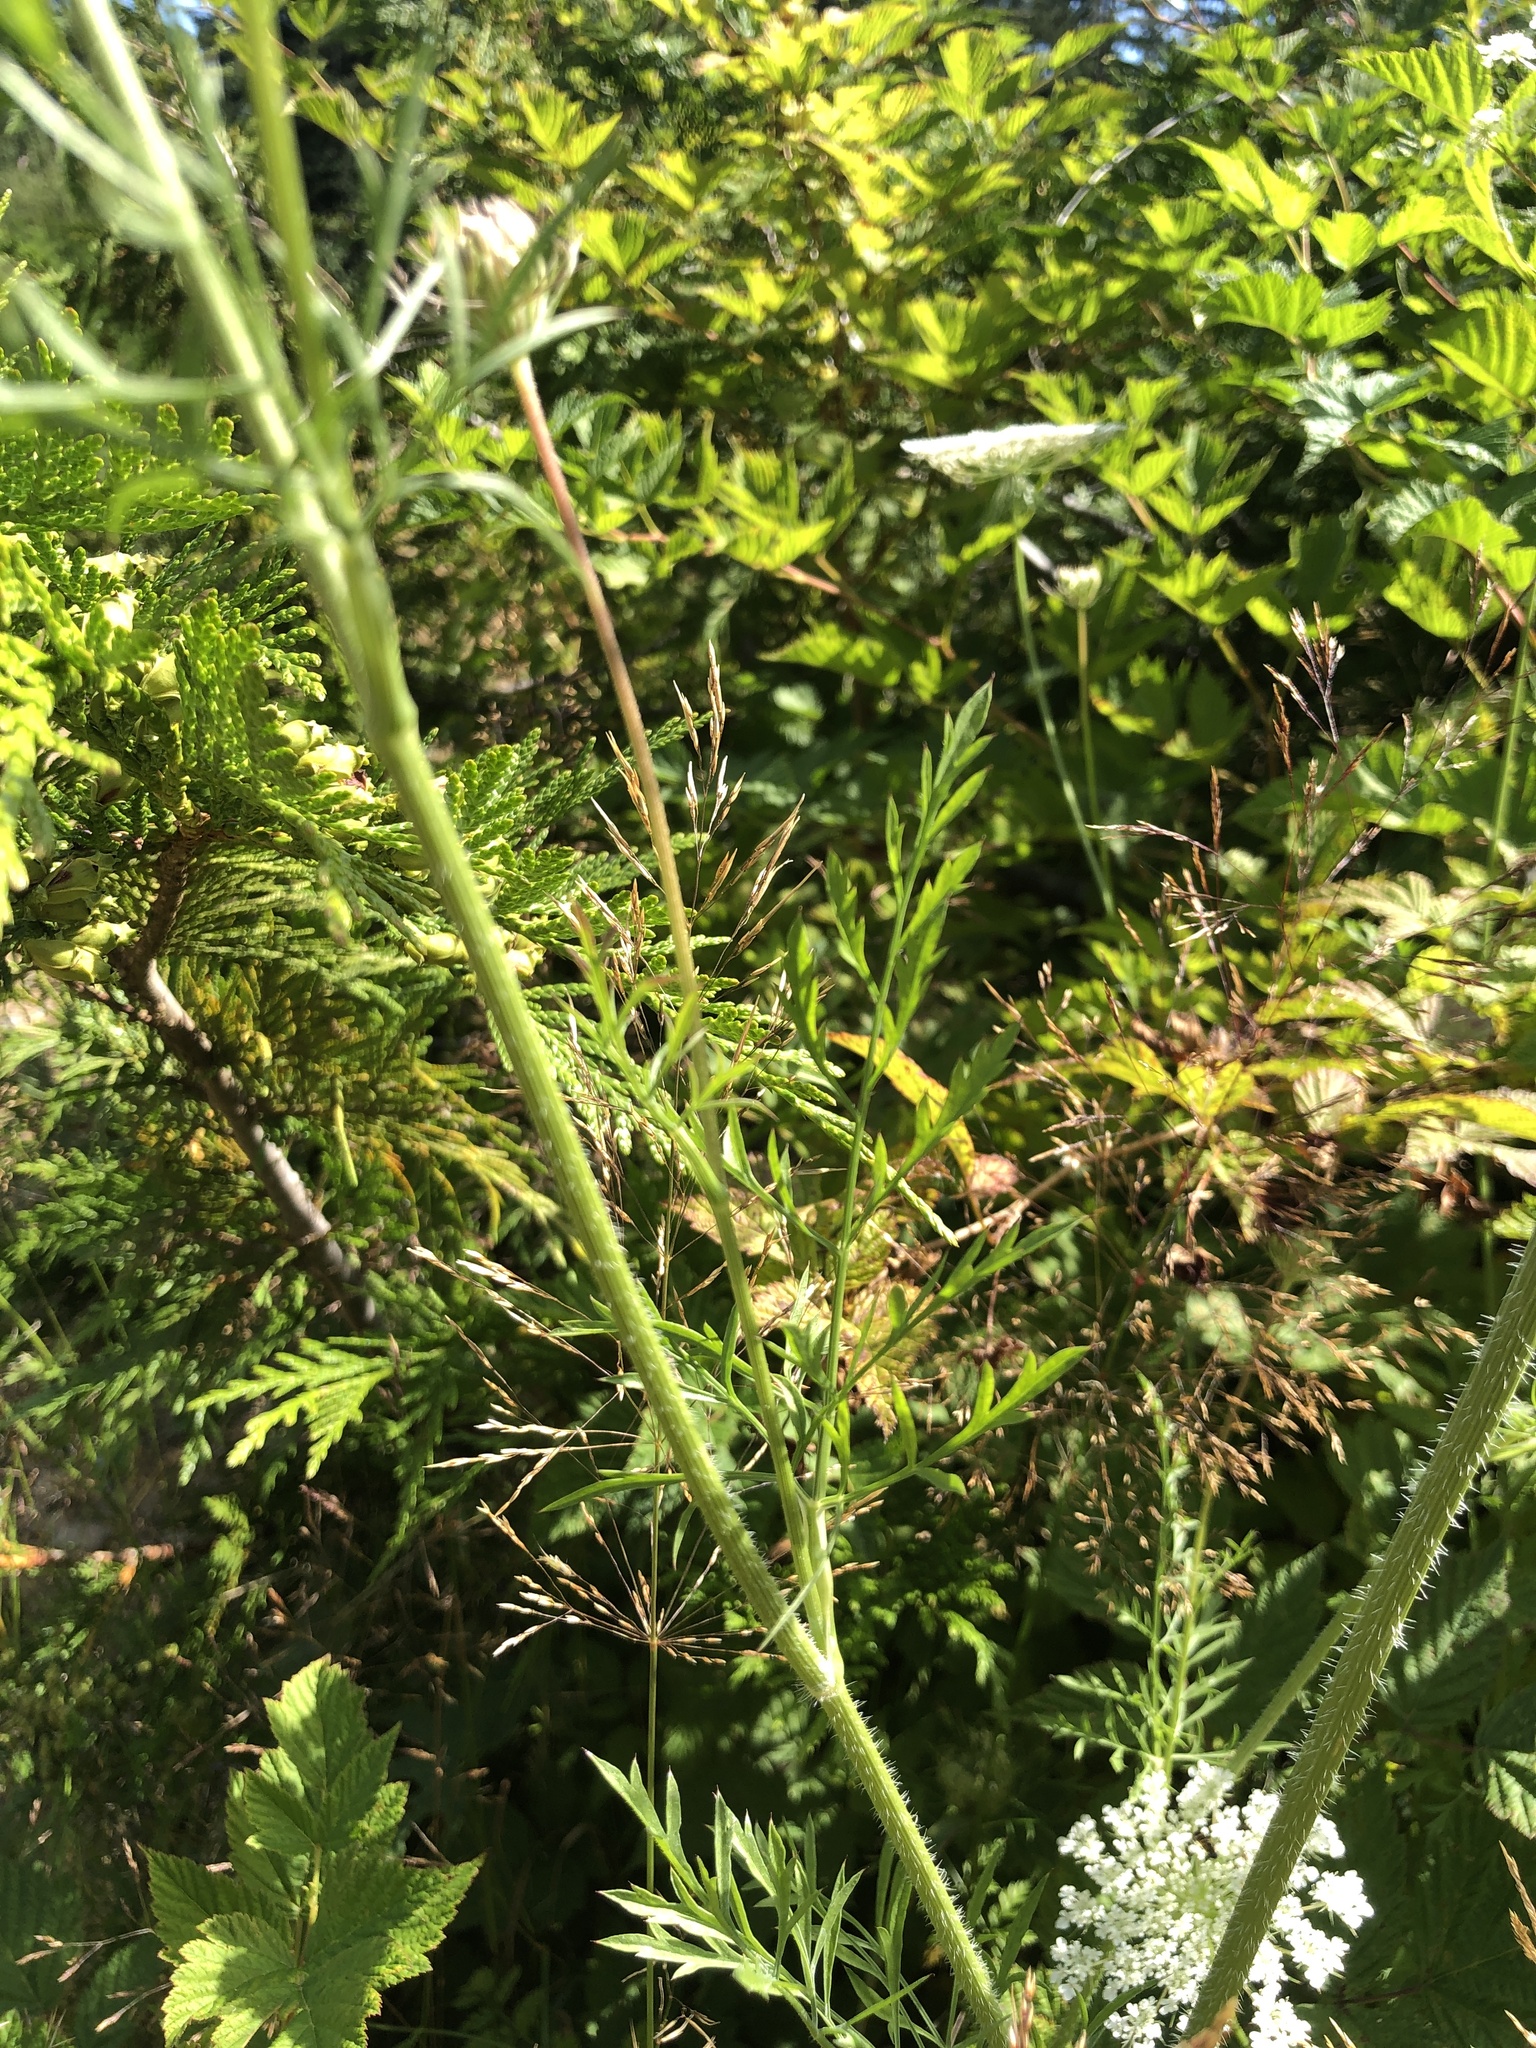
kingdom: Plantae
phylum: Tracheophyta
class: Magnoliopsida
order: Apiales
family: Apiaceae
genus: Daucus
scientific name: Daucus carota
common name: Wild carrot
